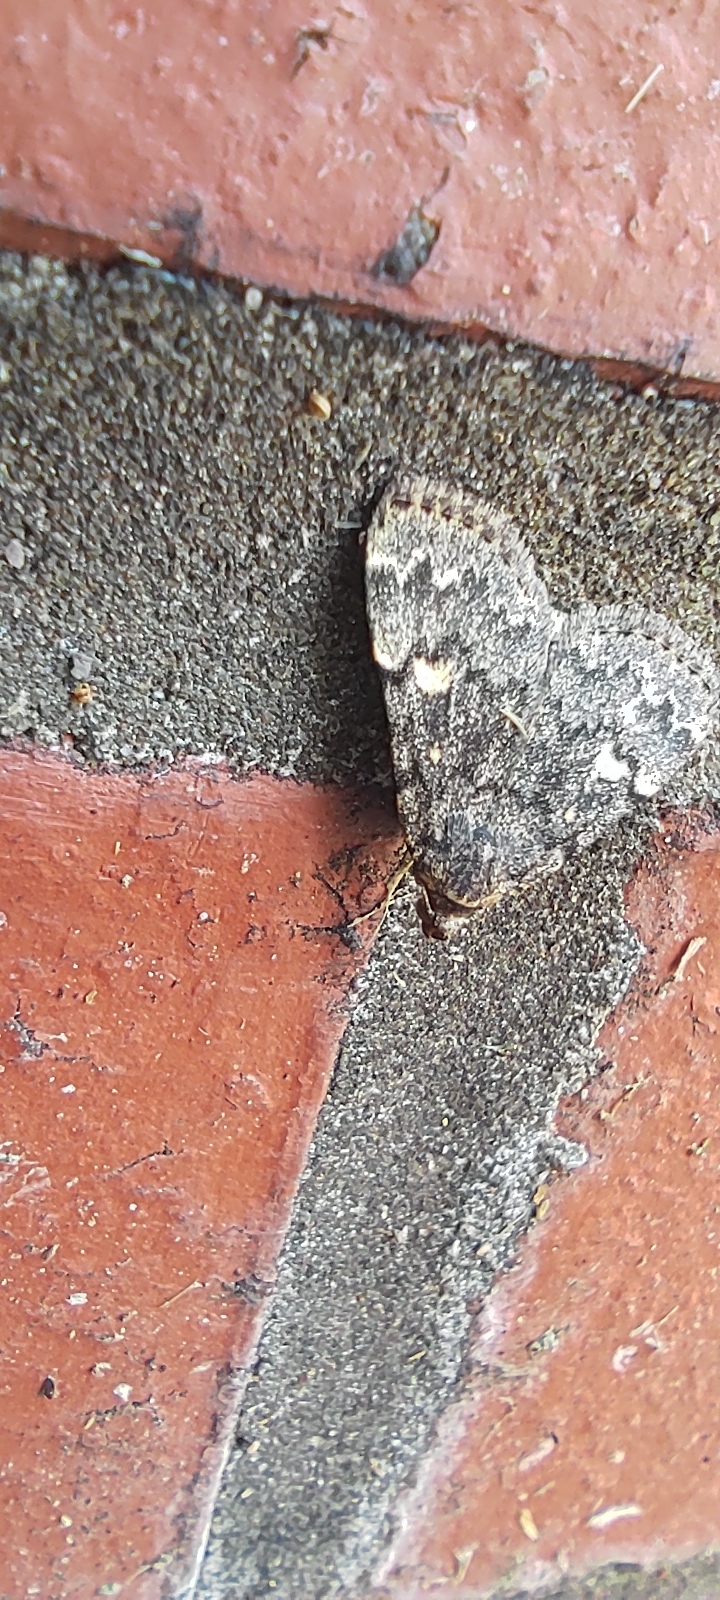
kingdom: Animalia
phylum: Arthropoda
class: Insecta
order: Lepidoptera
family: Erebidae
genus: Idia
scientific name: Idia aemula
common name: Common idia moth
